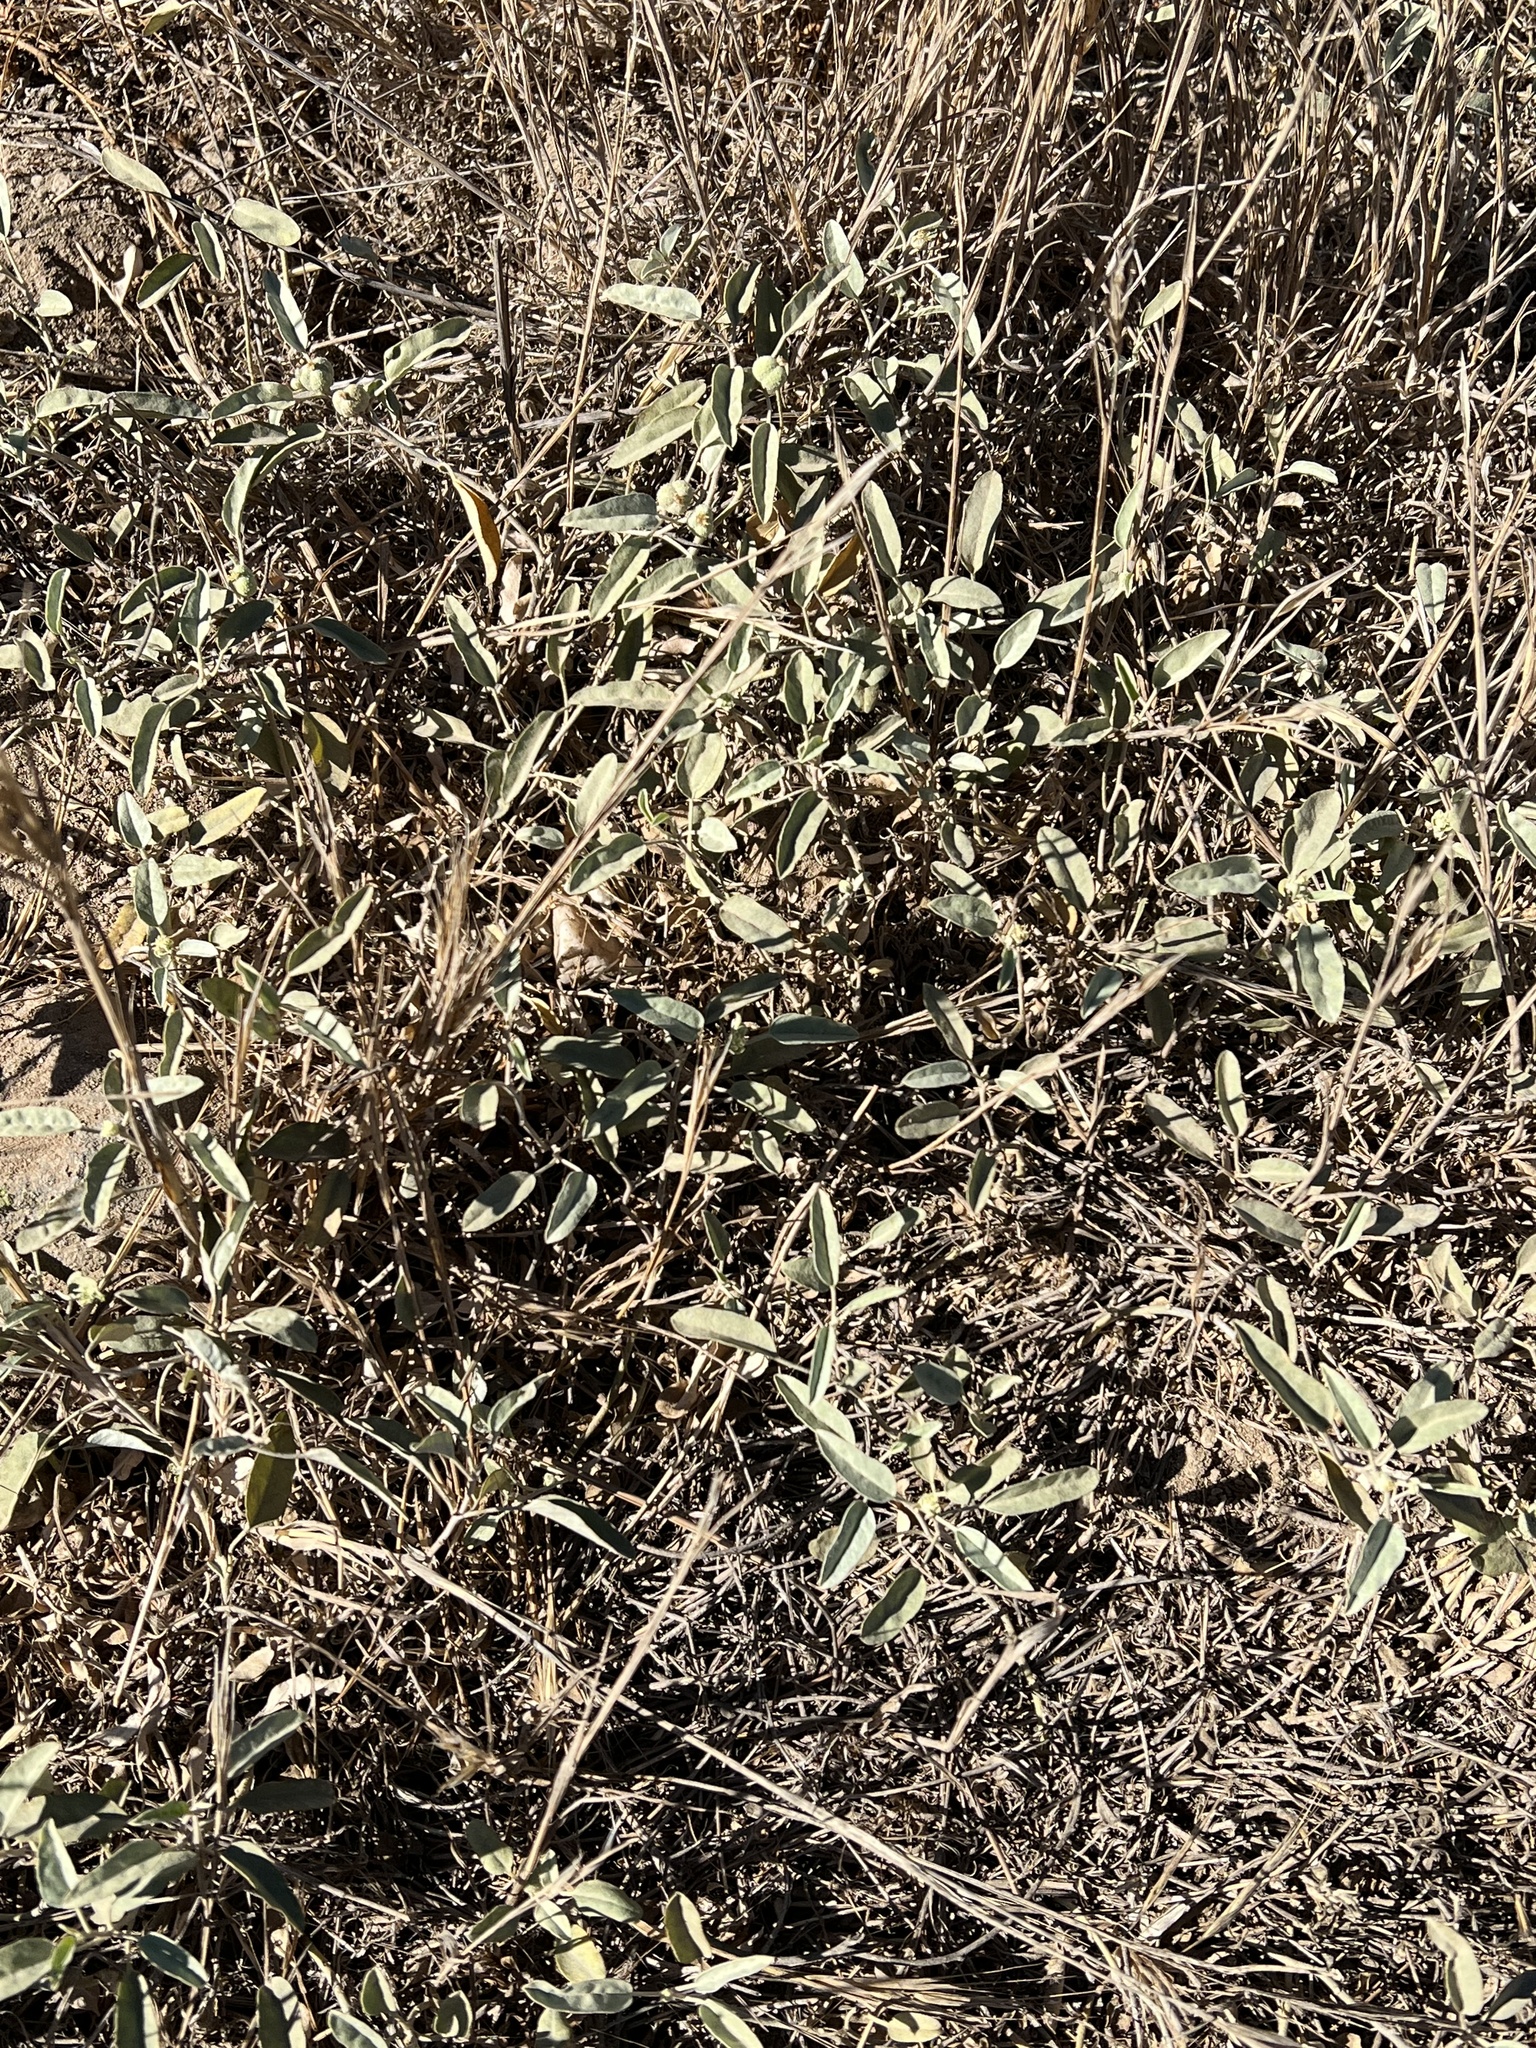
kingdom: Plantae
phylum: Tracheophyta
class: Magnoliopsida
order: Malpighiales
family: Euphorbiaceae
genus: Croton
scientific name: Croton californicus
